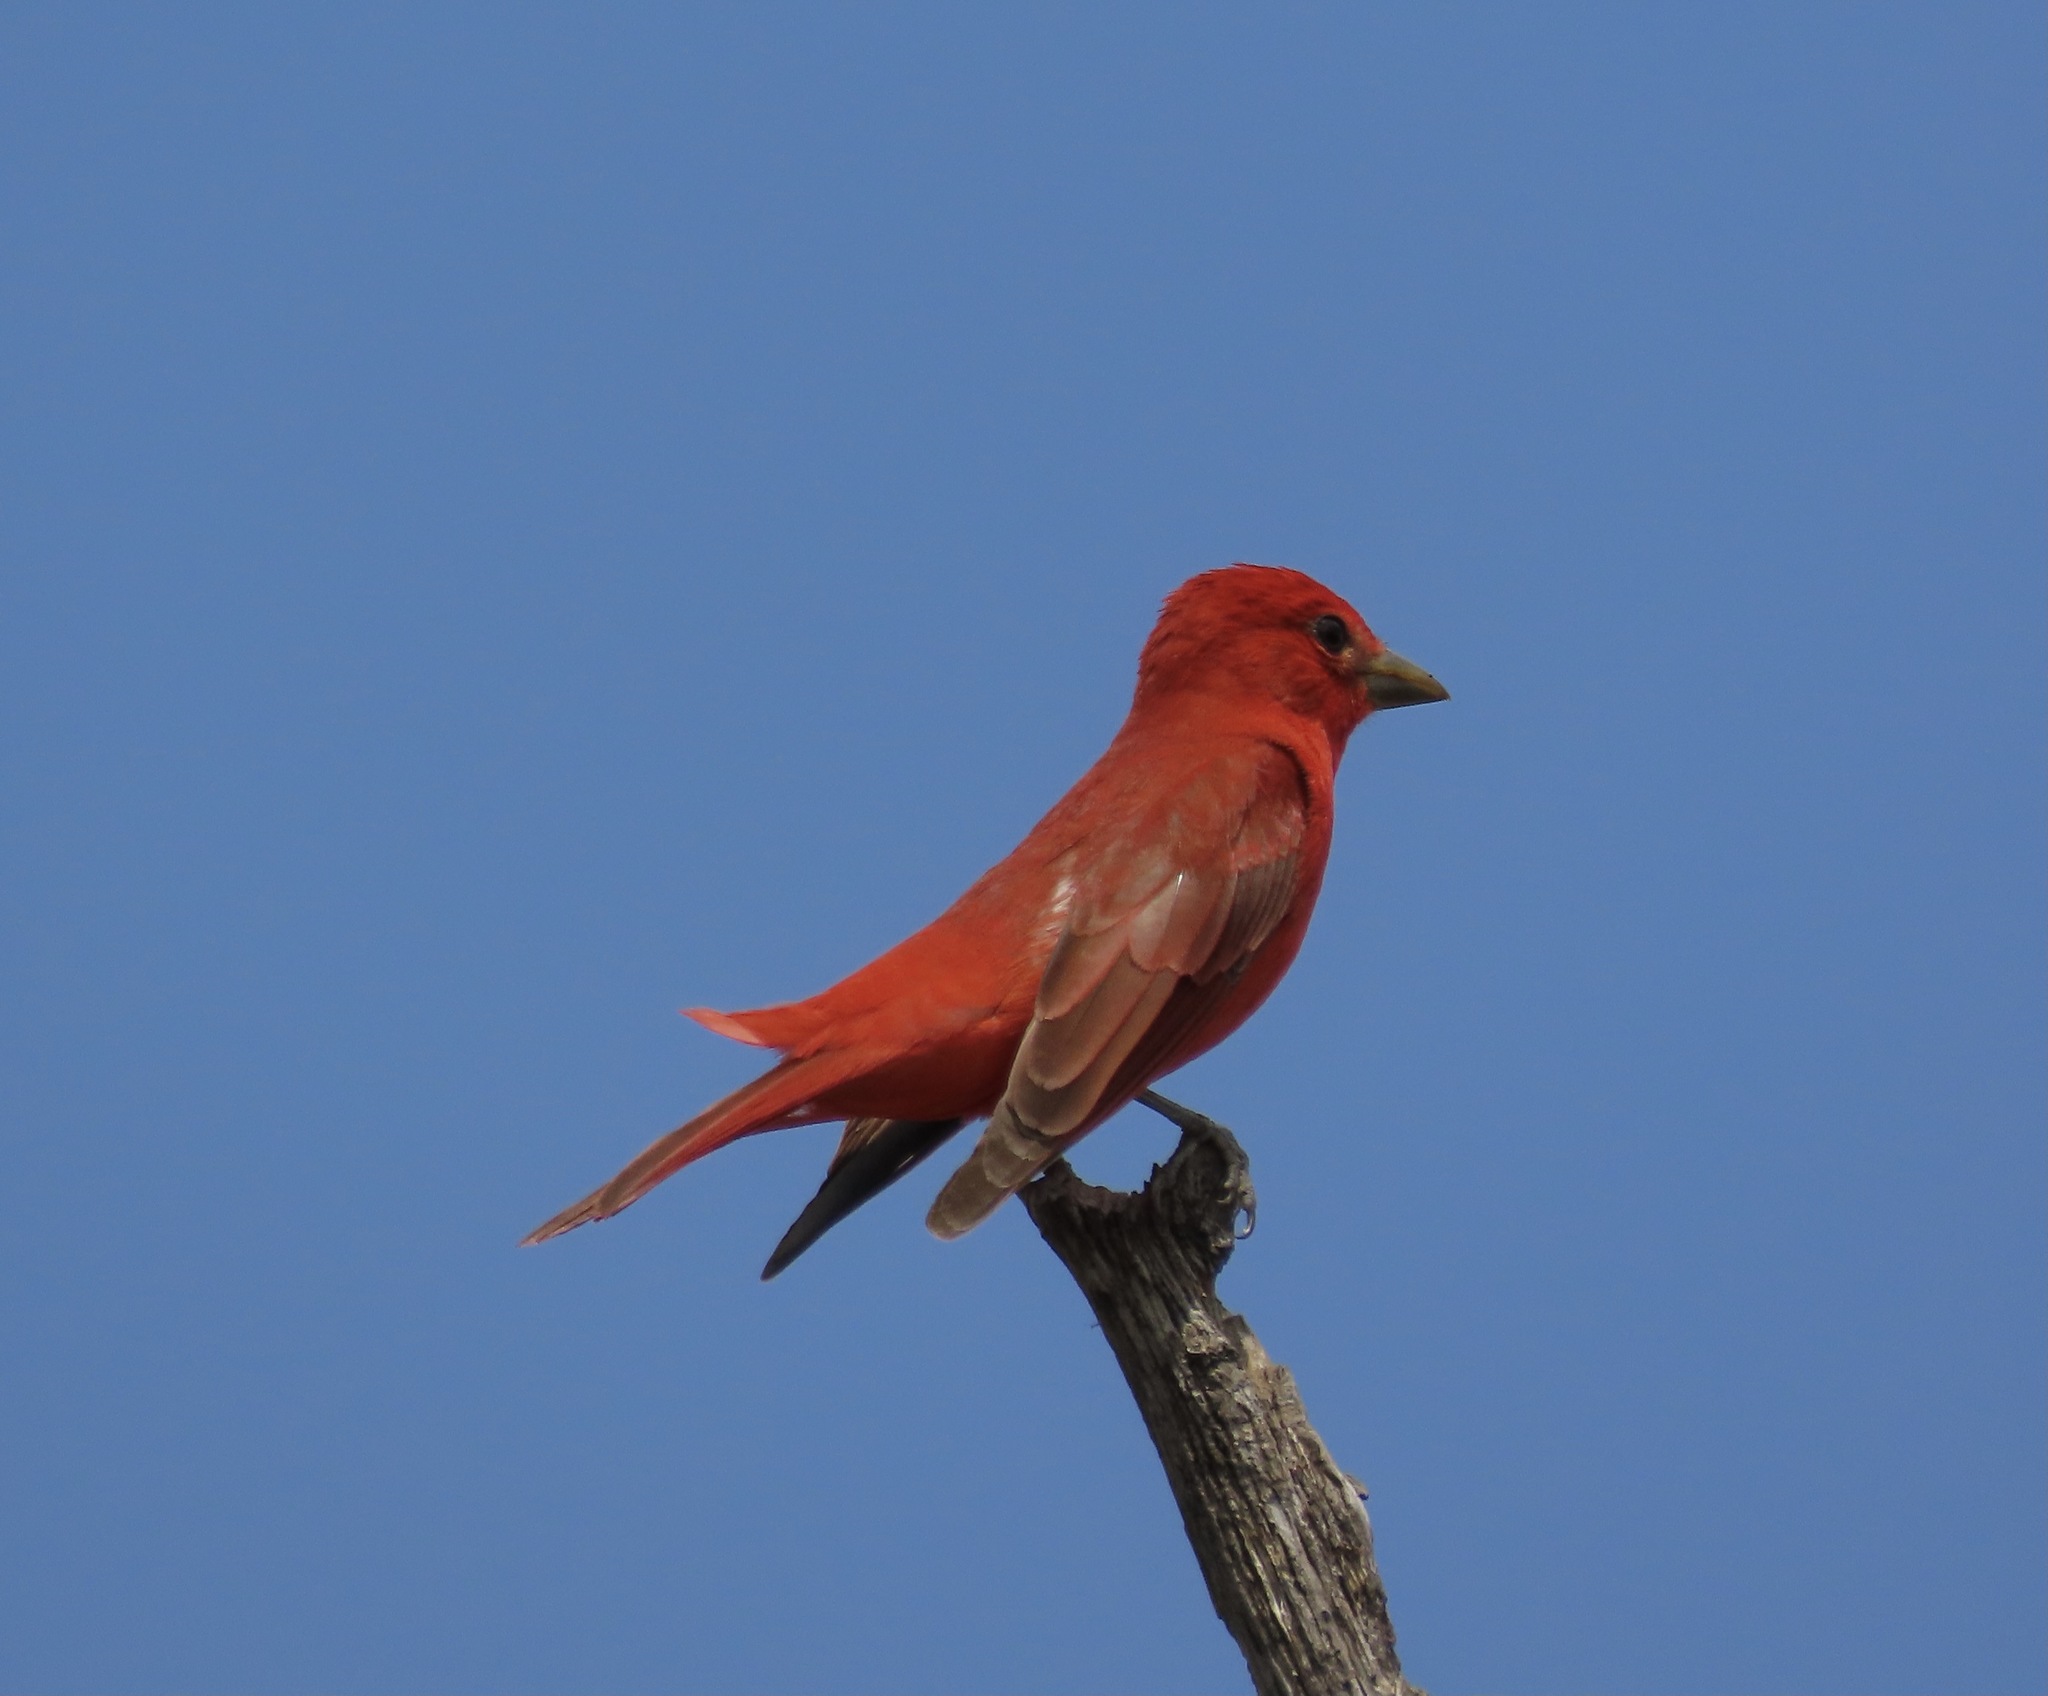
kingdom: Animalia
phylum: Chordata
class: Aves
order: Passeriformes
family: Cardinalidae
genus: Piranga
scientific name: Piranga rubra
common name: Summer tanager
